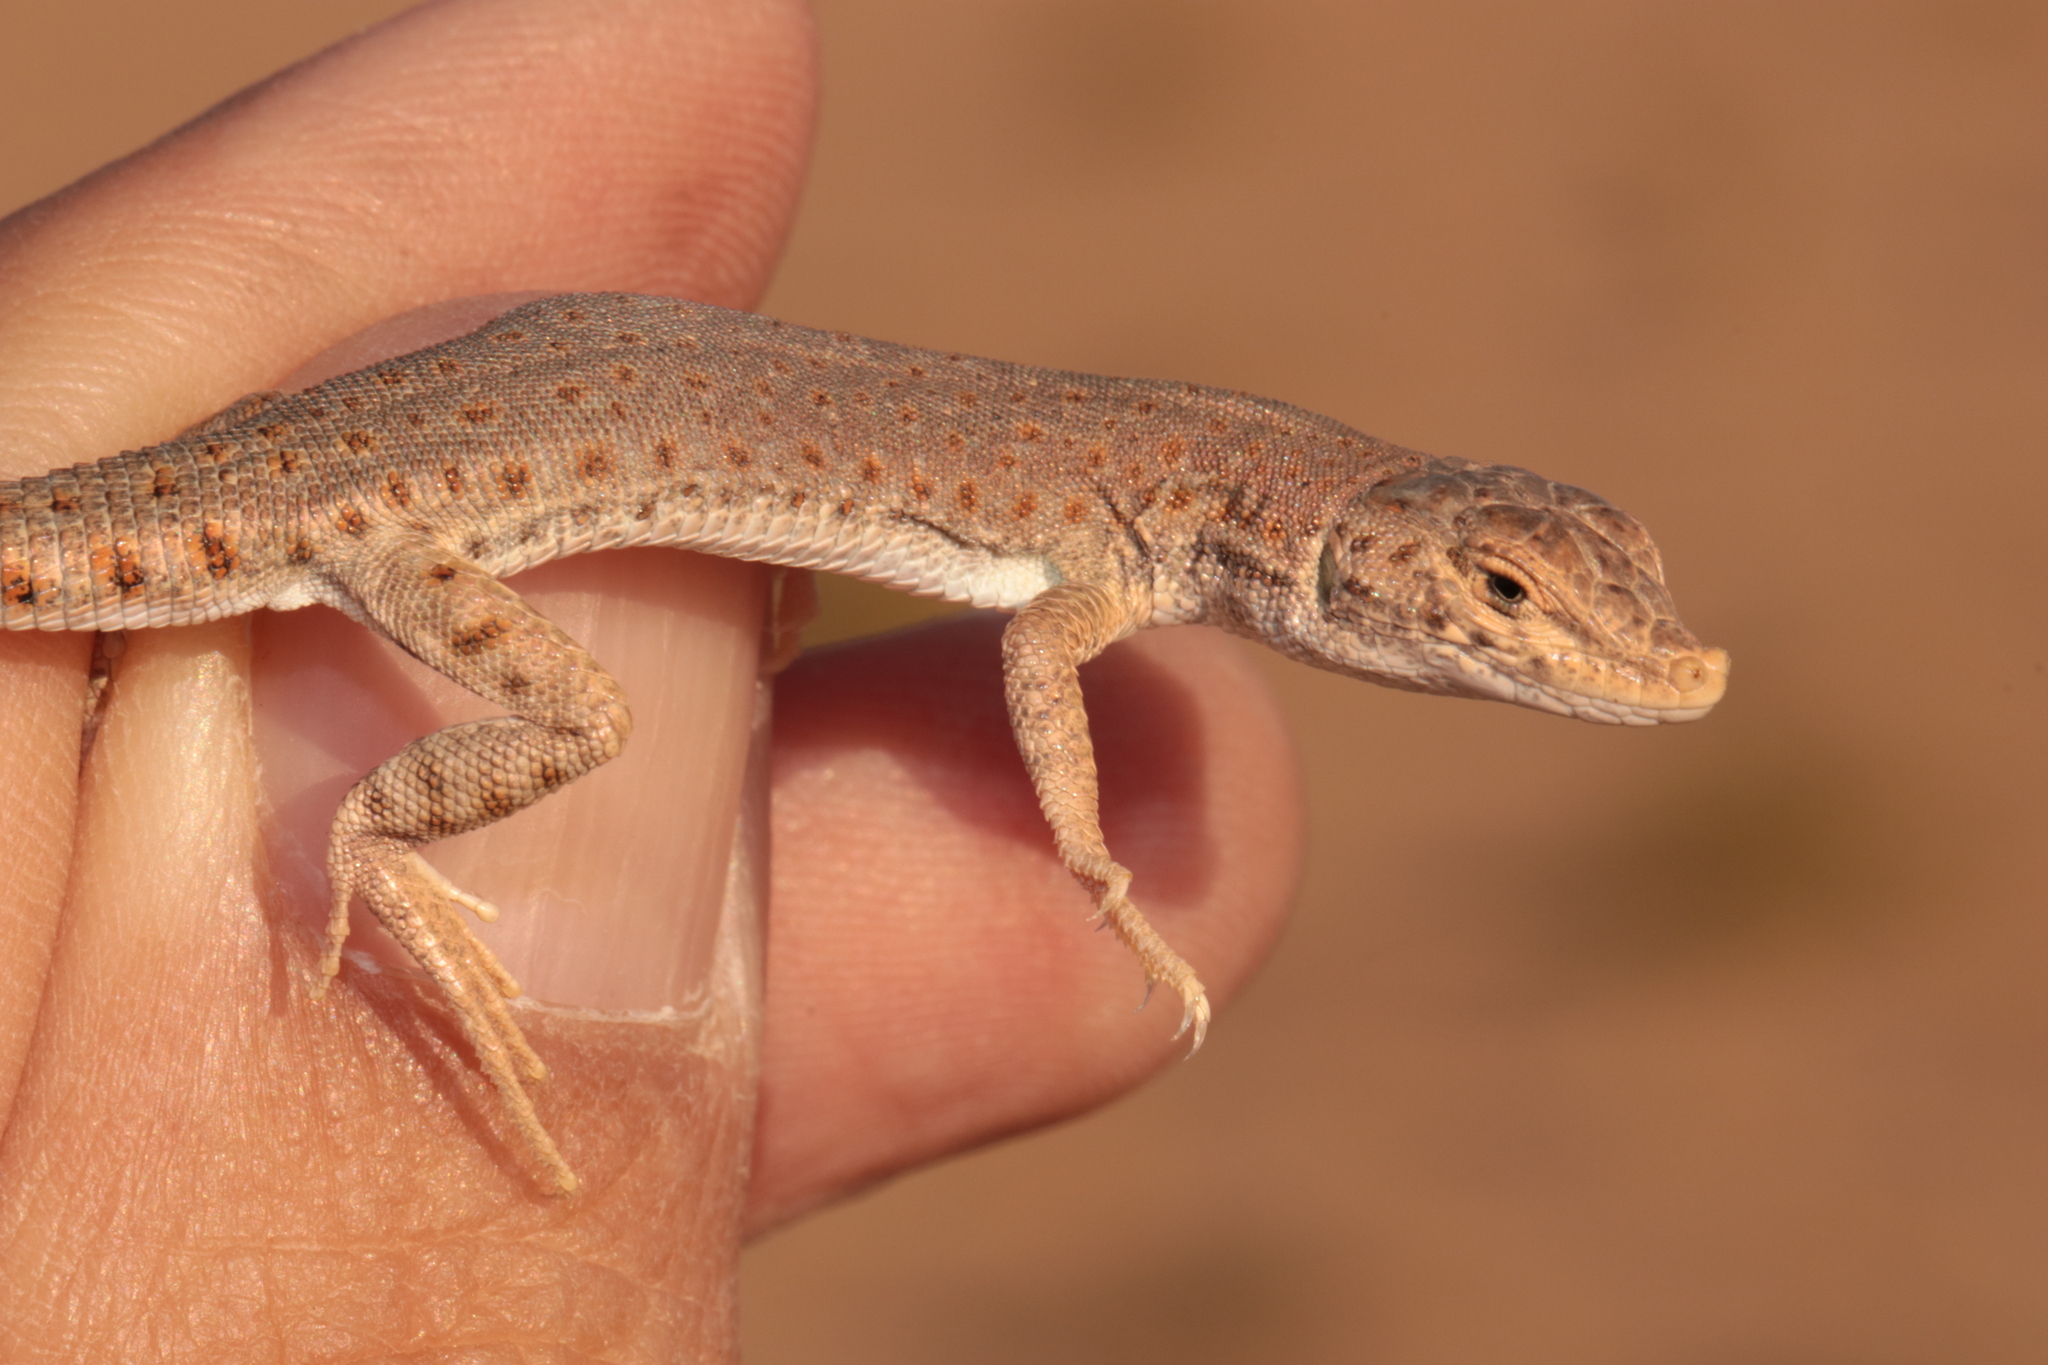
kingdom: Animalia
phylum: Chordata
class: Squamata
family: Lacertidae
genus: Mesalina
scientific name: Mesalina brevirostris
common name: Blanford's short-nosed desert lizard
